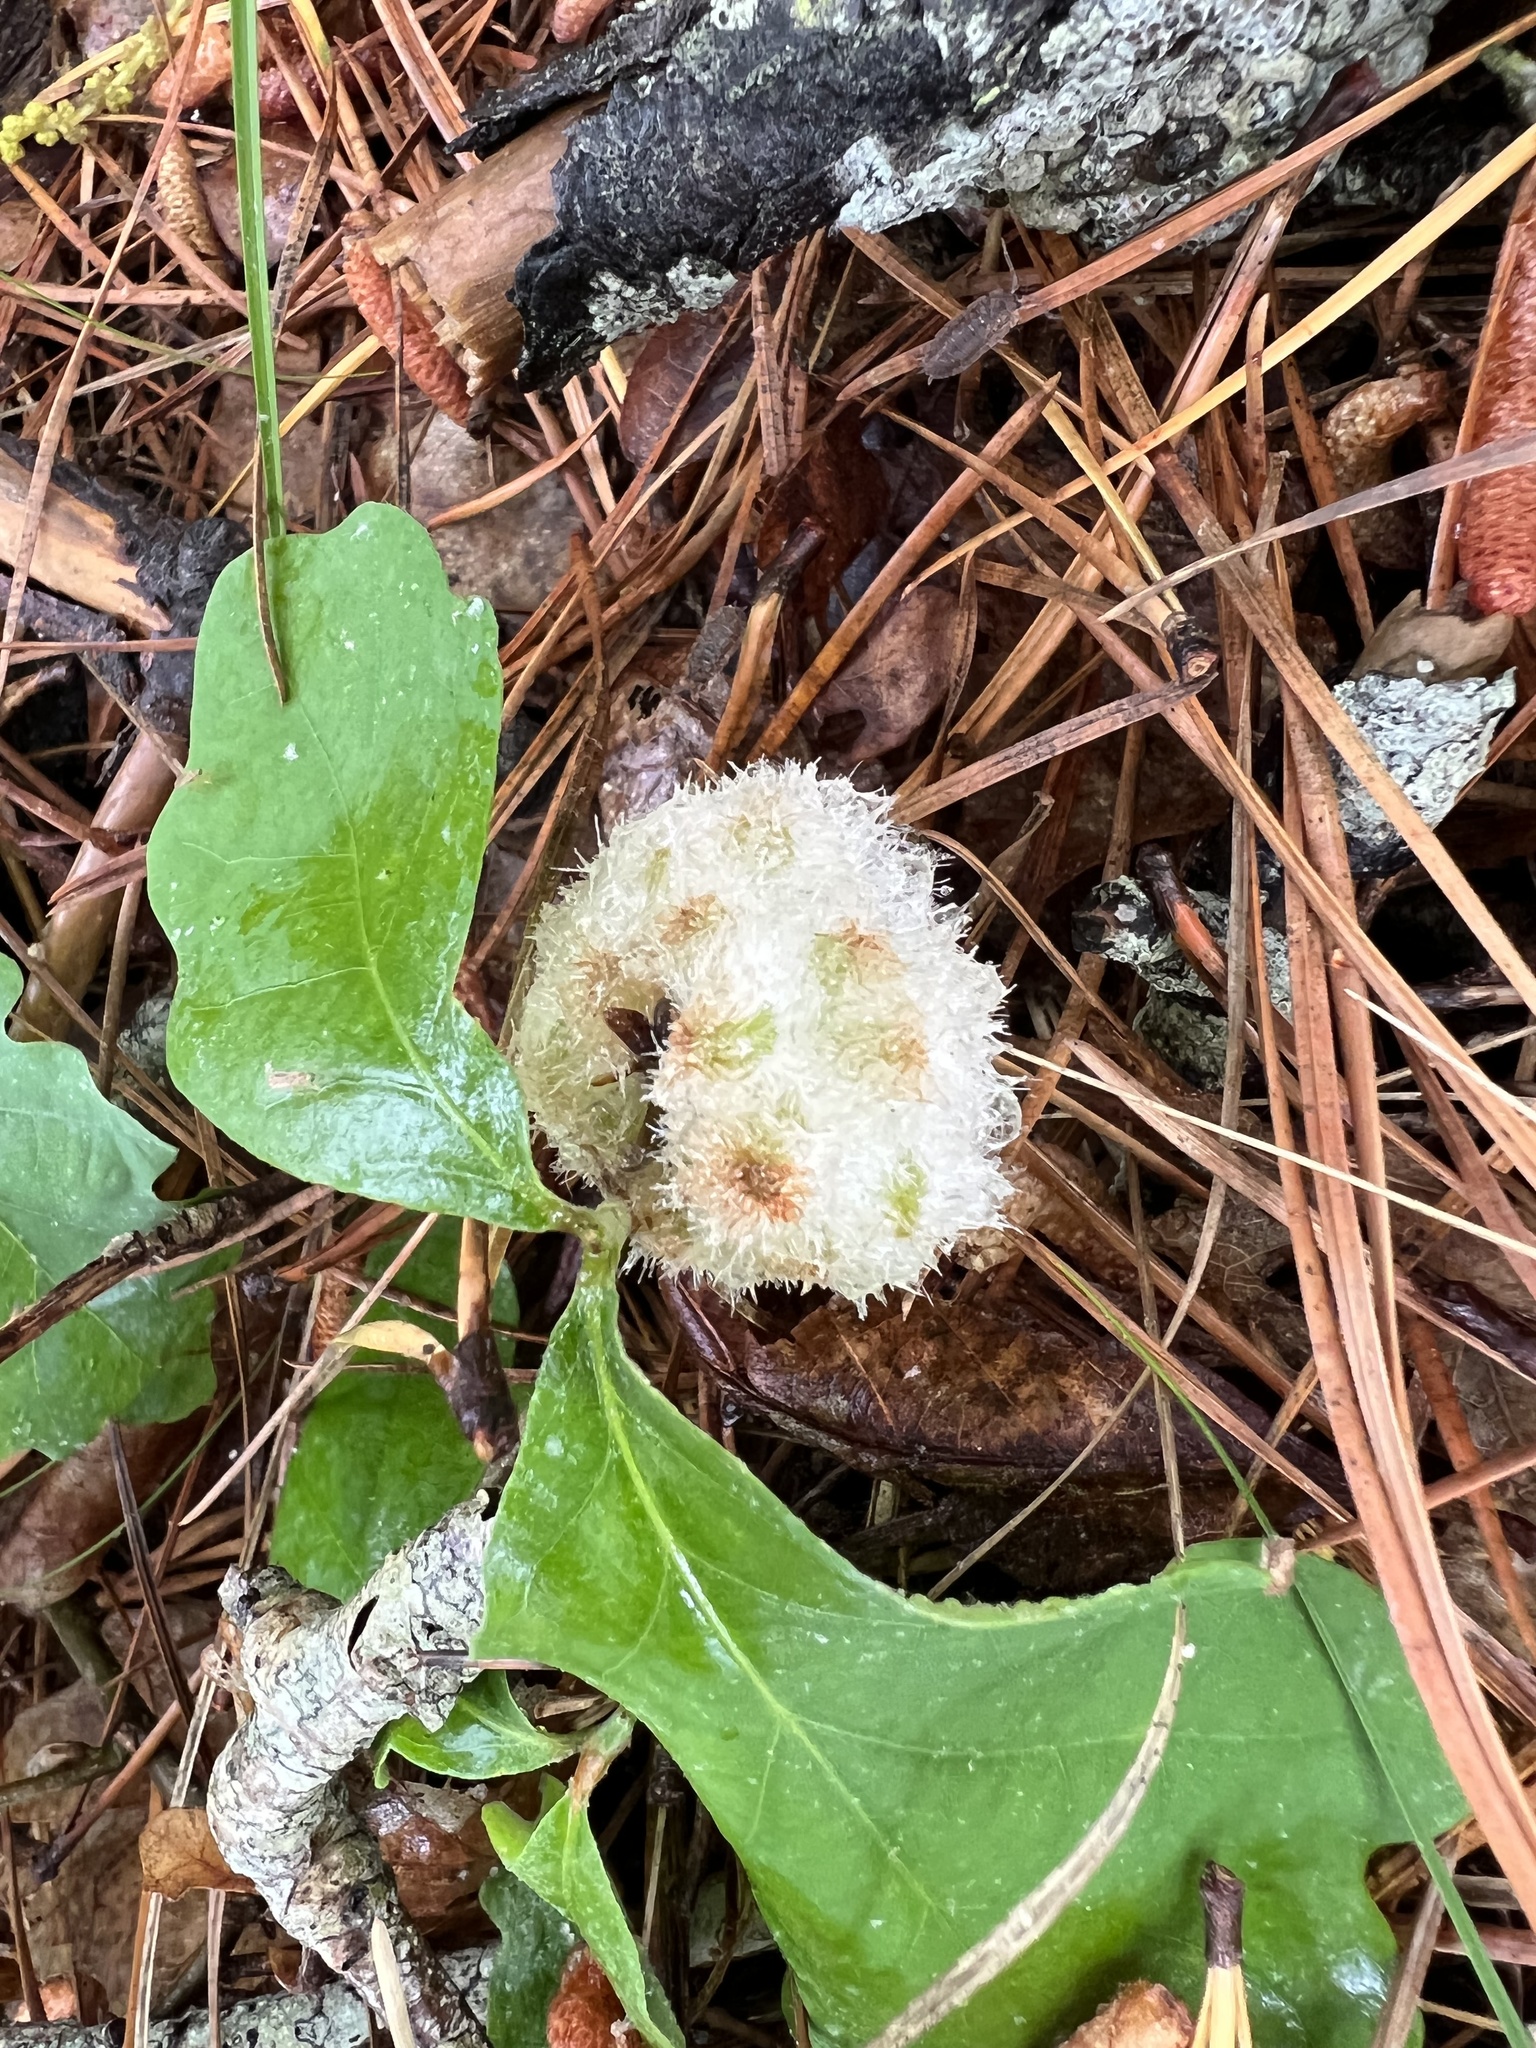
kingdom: Animalia
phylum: Arthropoda
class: Insecta
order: Hymenoptera
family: Cynipidae
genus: Callirhytis
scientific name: Callirhytis
